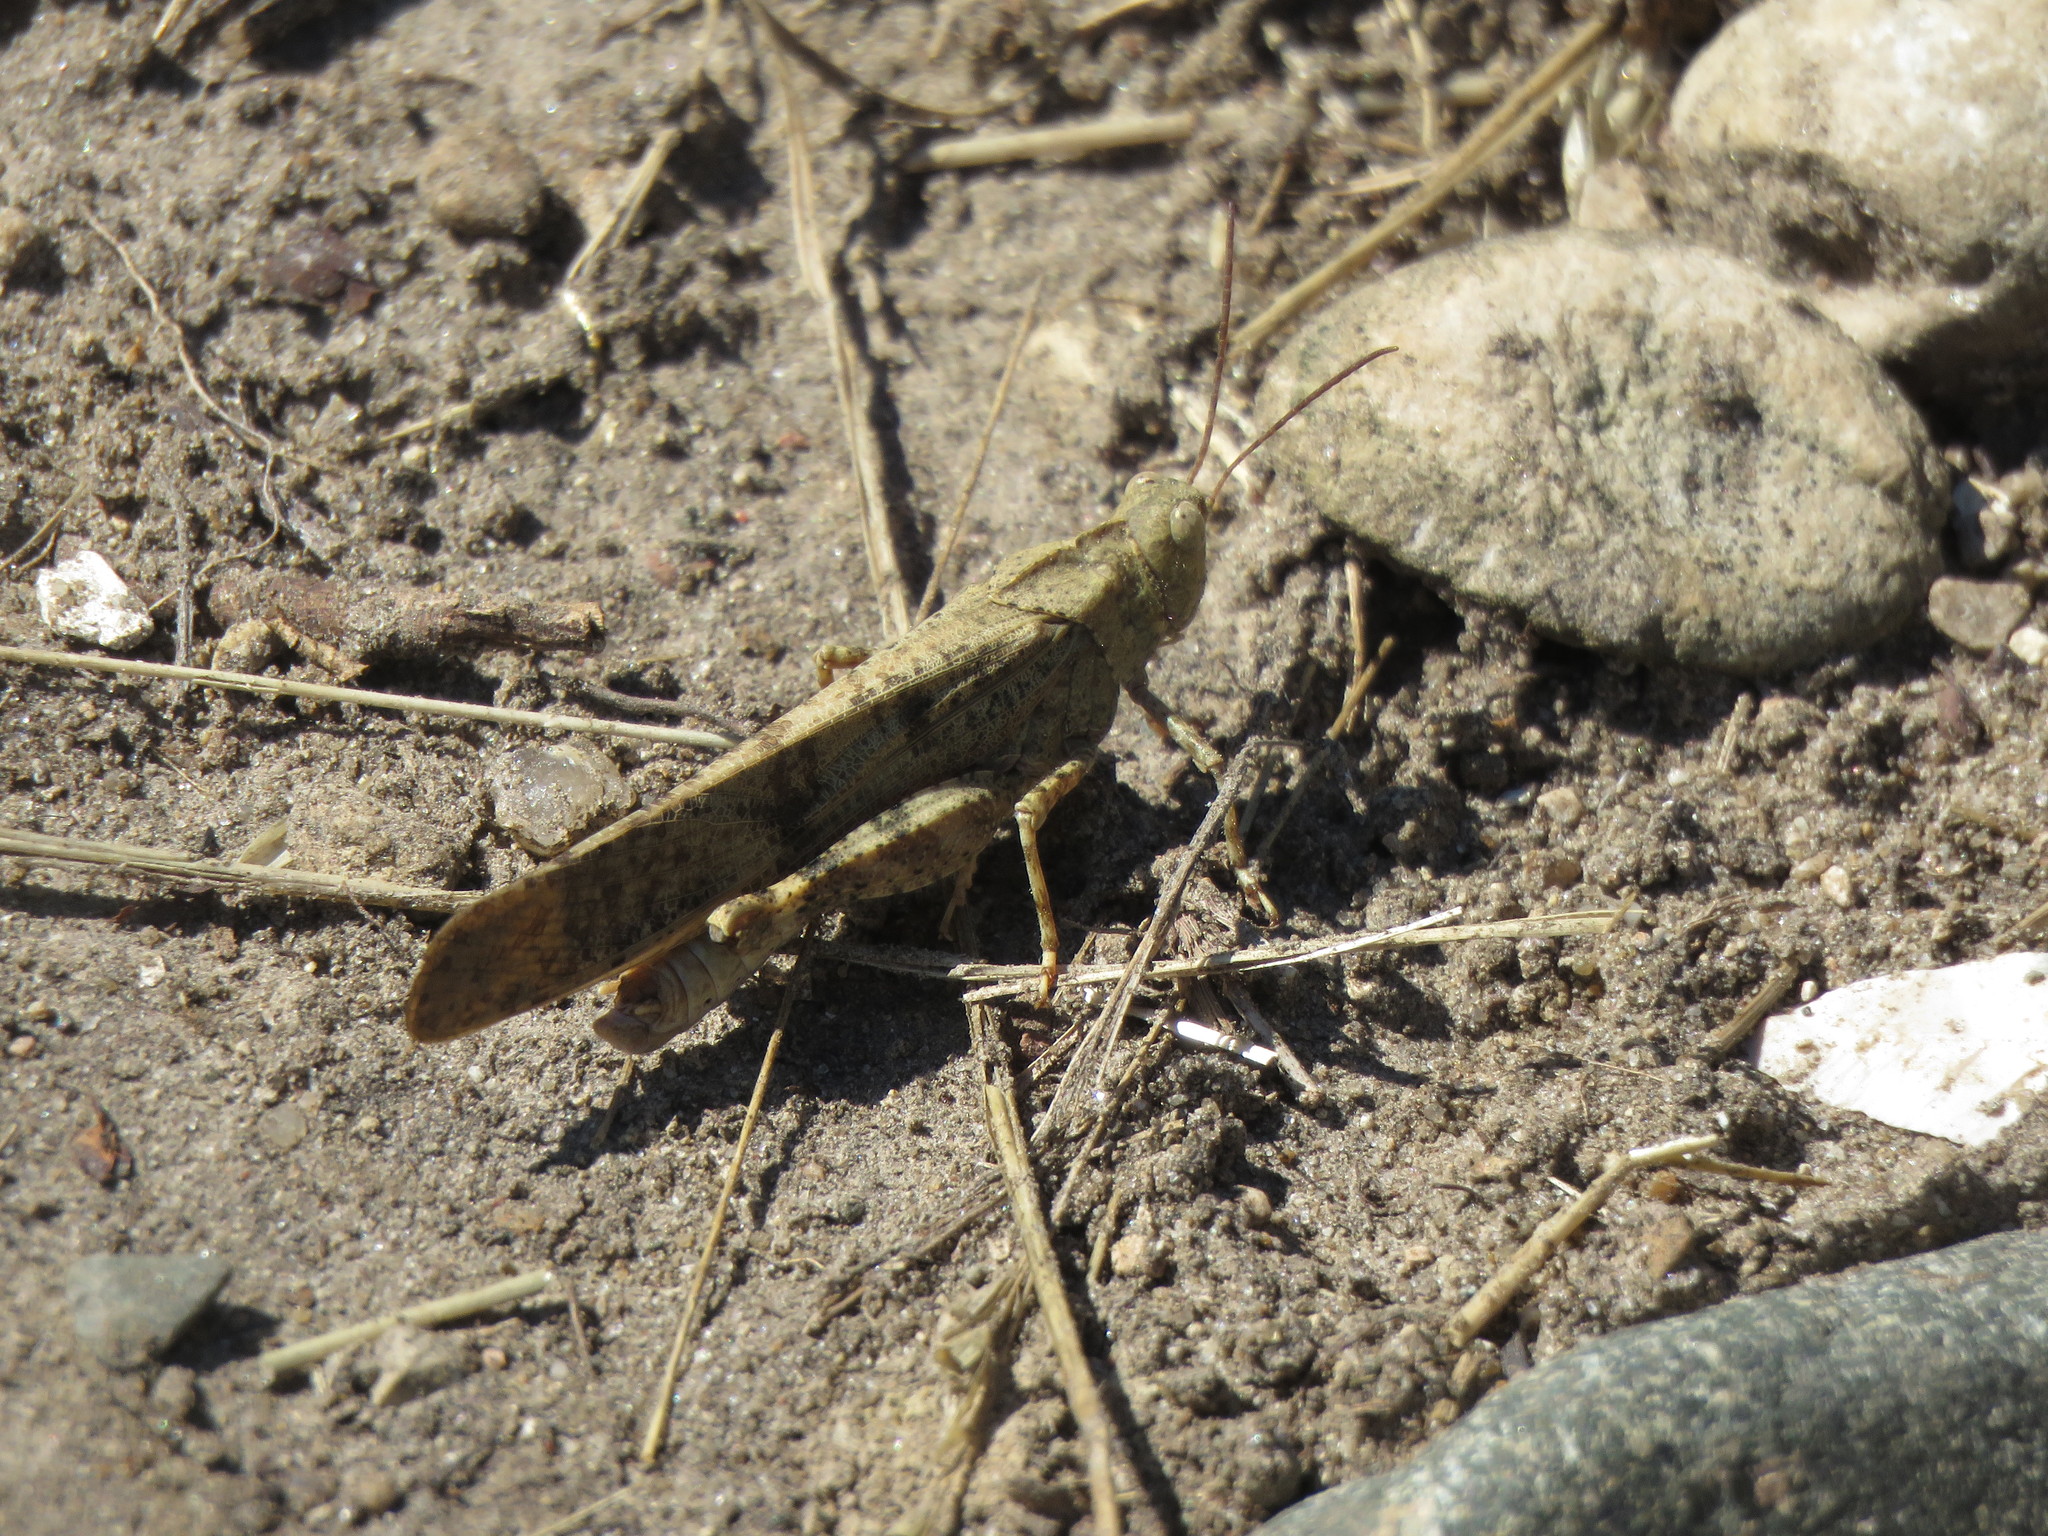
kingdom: Animalia
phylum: Arthropoda
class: Insecta
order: Orthoptera
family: Acrididae
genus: Dissosteira
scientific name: Dissosteira carolina
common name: Carolina grasshopper
